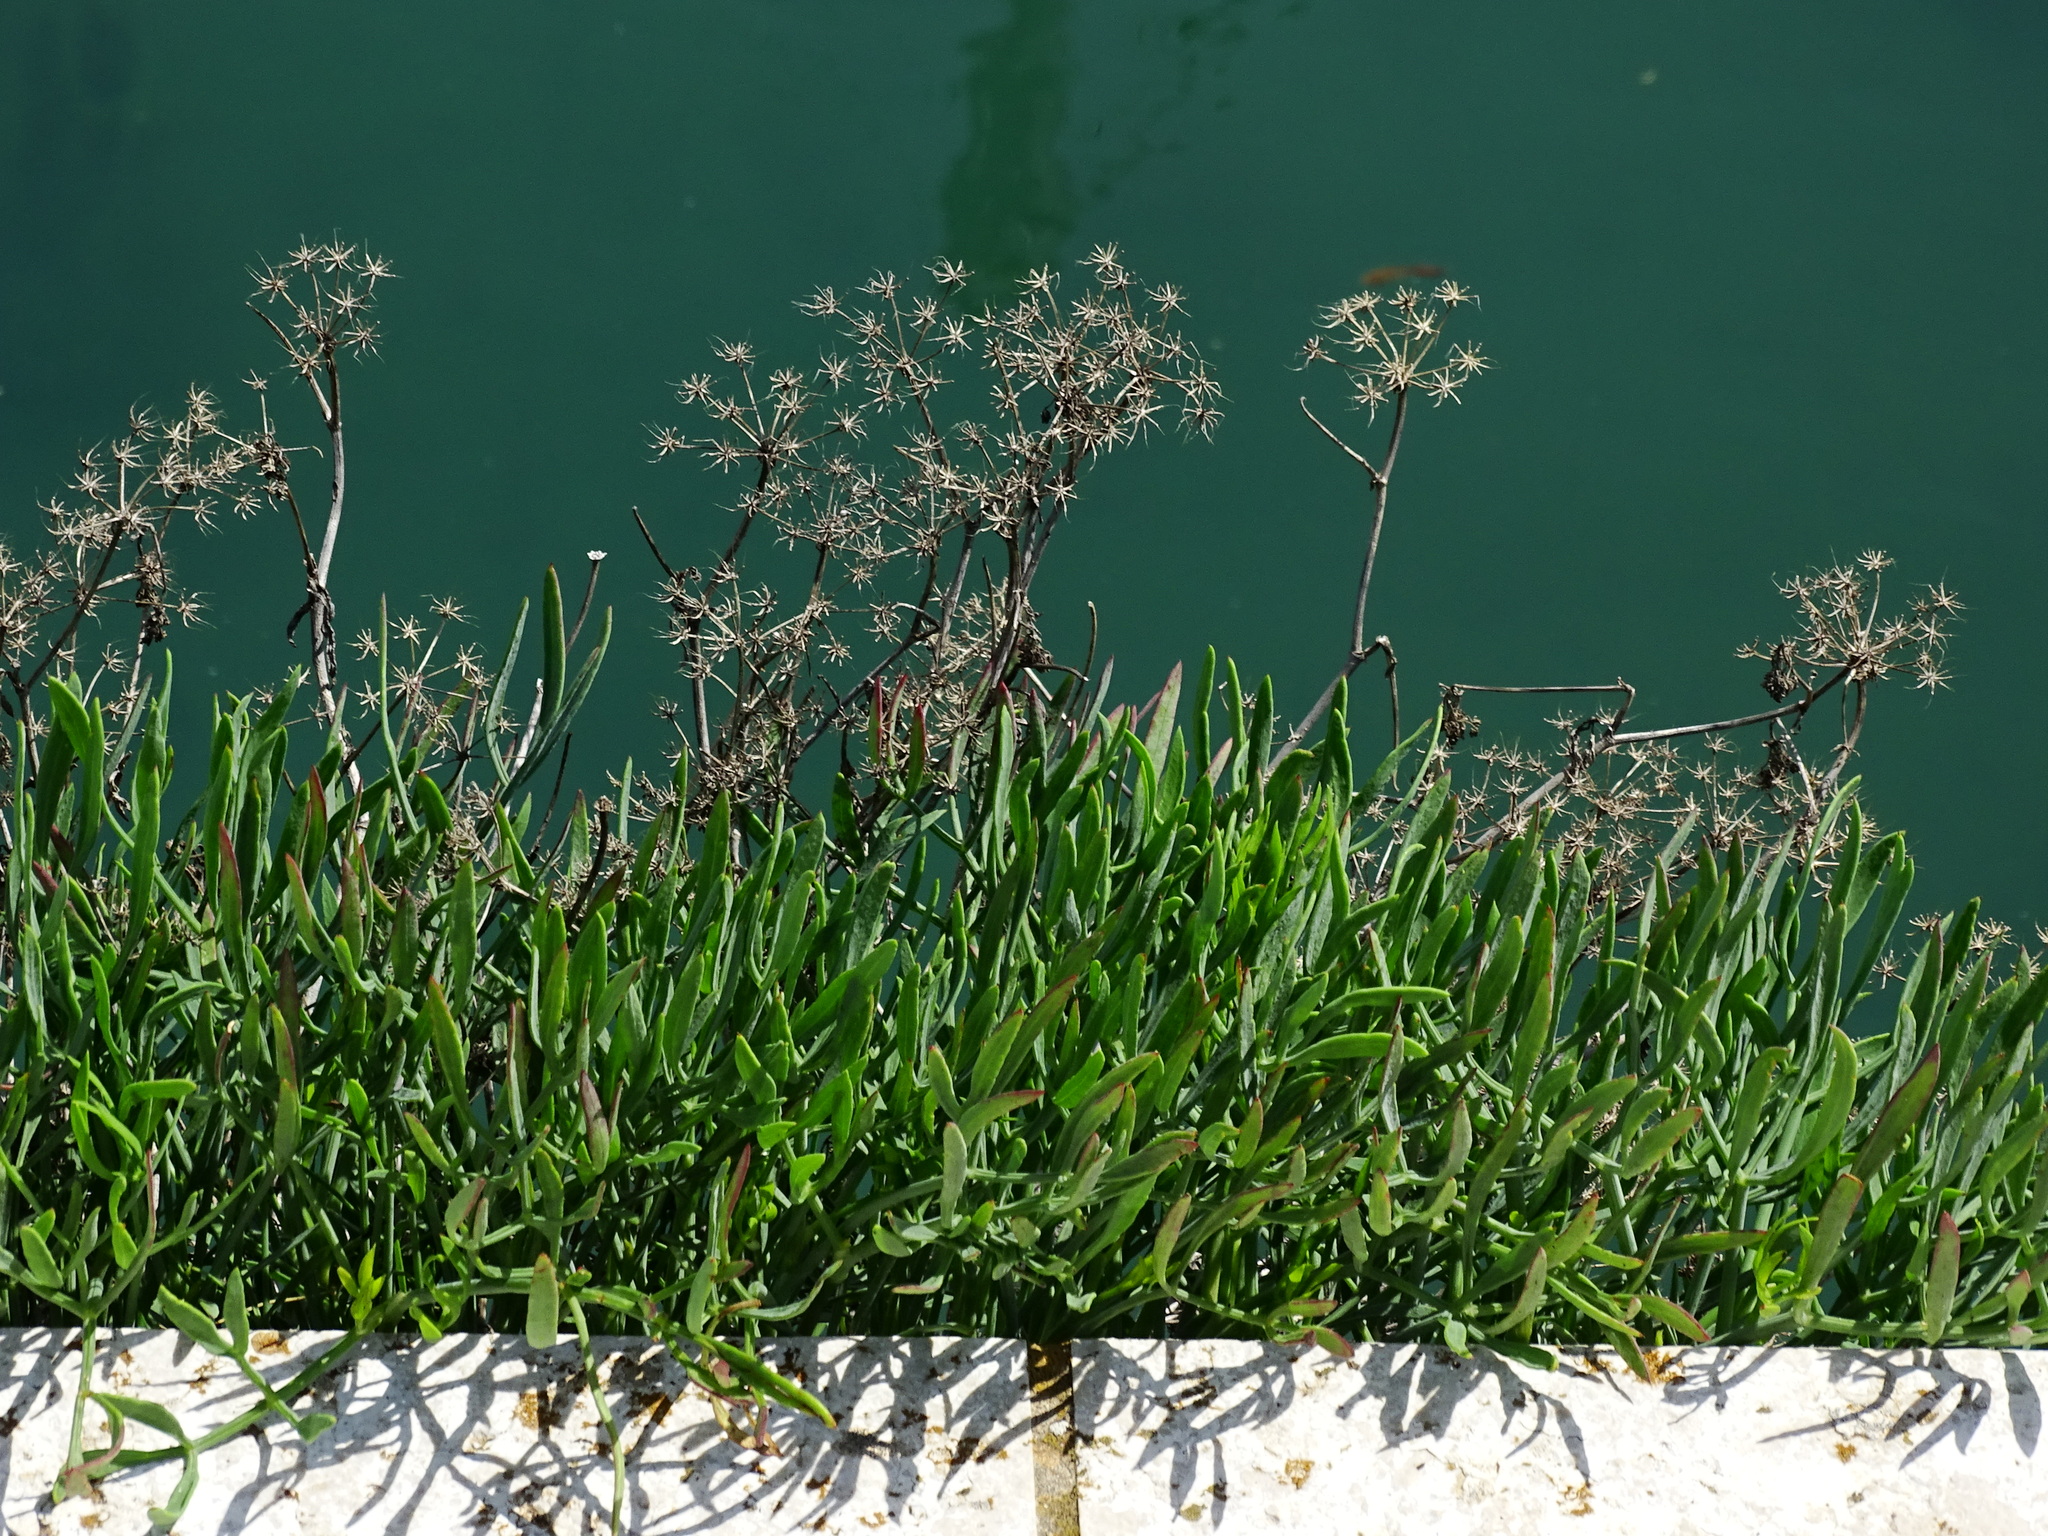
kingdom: Plantae
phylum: Tracheophyta
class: Magnoliopsida
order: Apiales
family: Apiaceae
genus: Crithmum
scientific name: Crithmum maritimum
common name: Rock samphire
